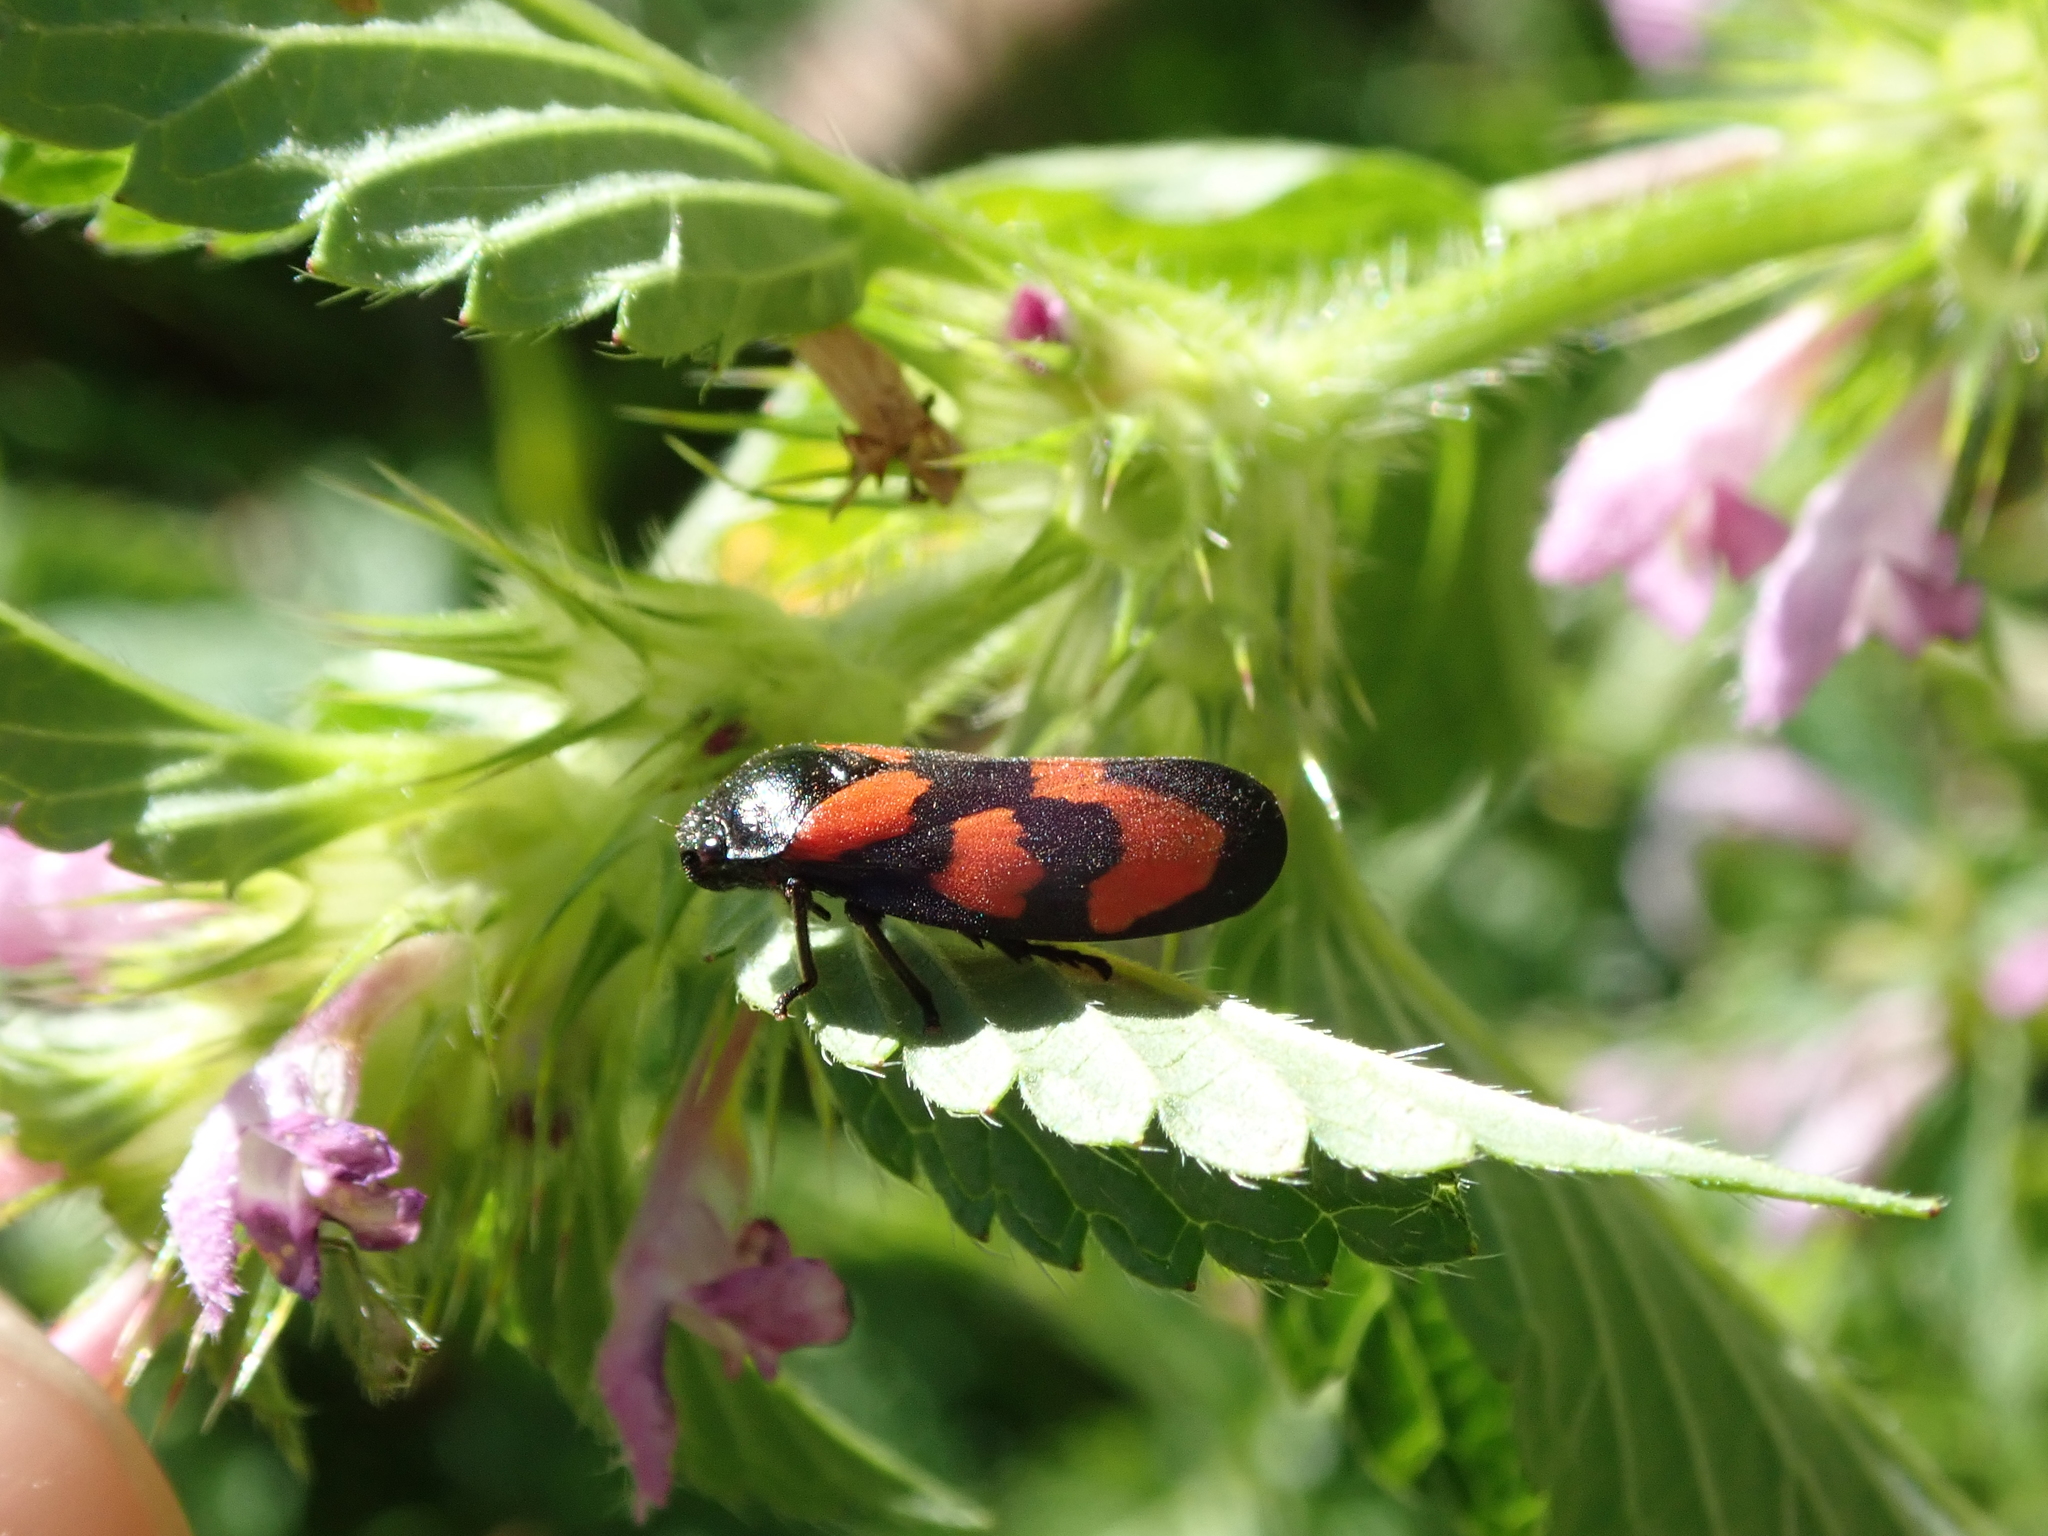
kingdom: Animalia
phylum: Arthropoda
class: Insecta
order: Hemiptera
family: Cercopidae
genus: Cercopis
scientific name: Cercopis vulnerata
